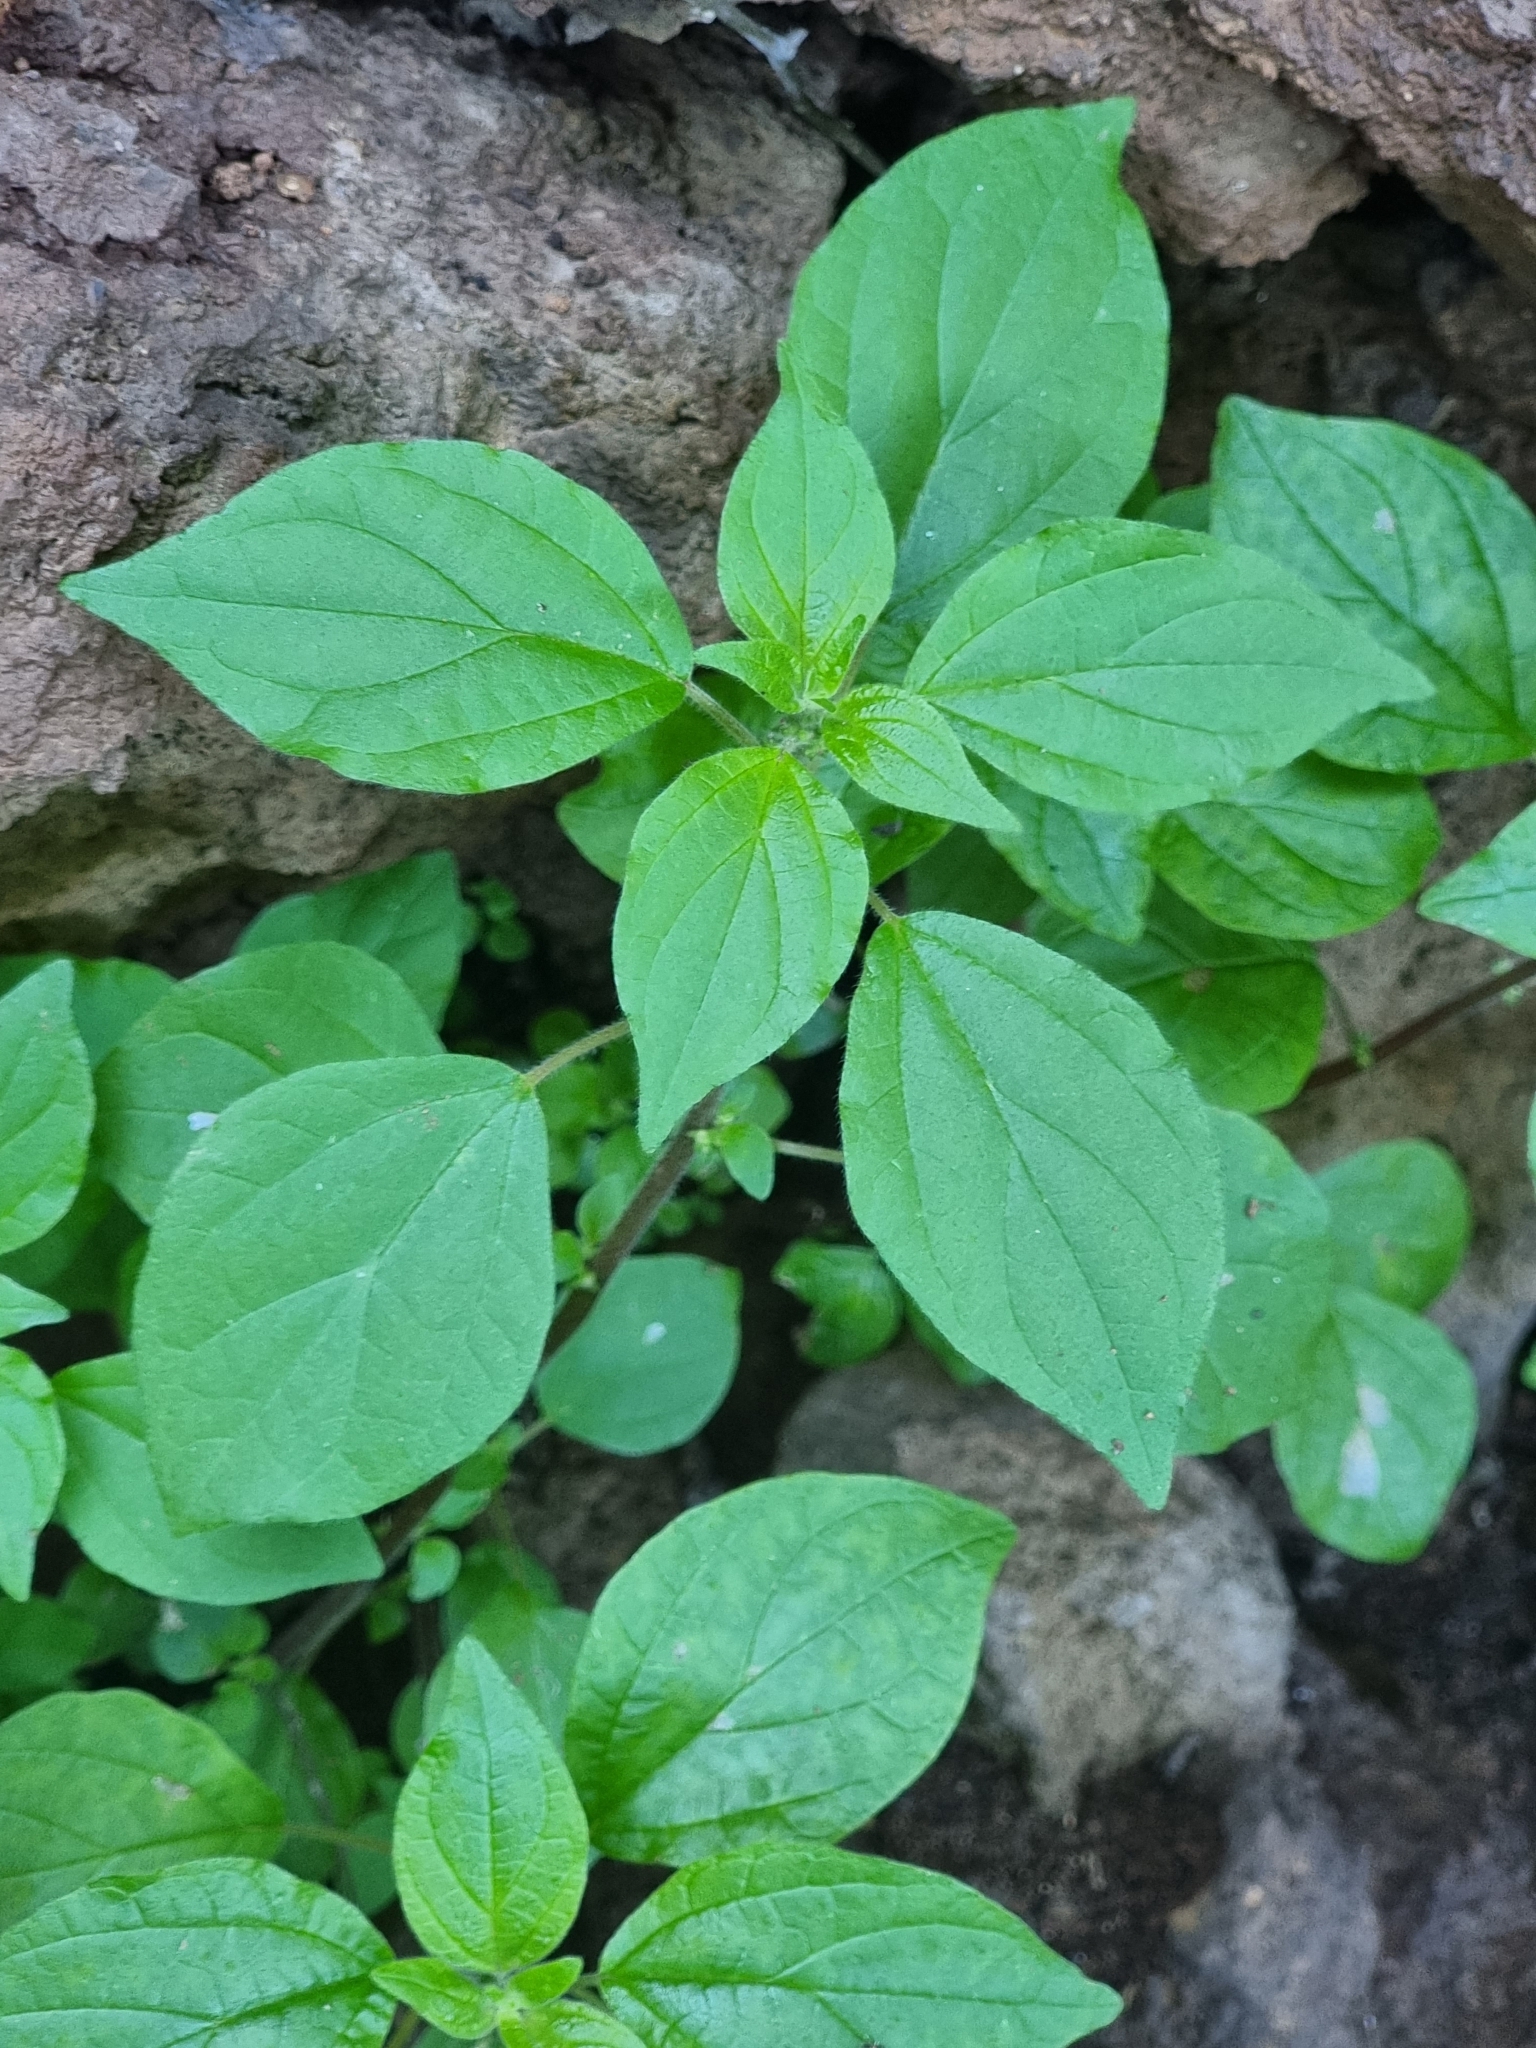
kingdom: Plantae
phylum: Tracheophyta
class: Magnoliopsida
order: Rosales
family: Urticaceae
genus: Parietaria
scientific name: Parietaria judaica
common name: Pellitory-of-the-wall
